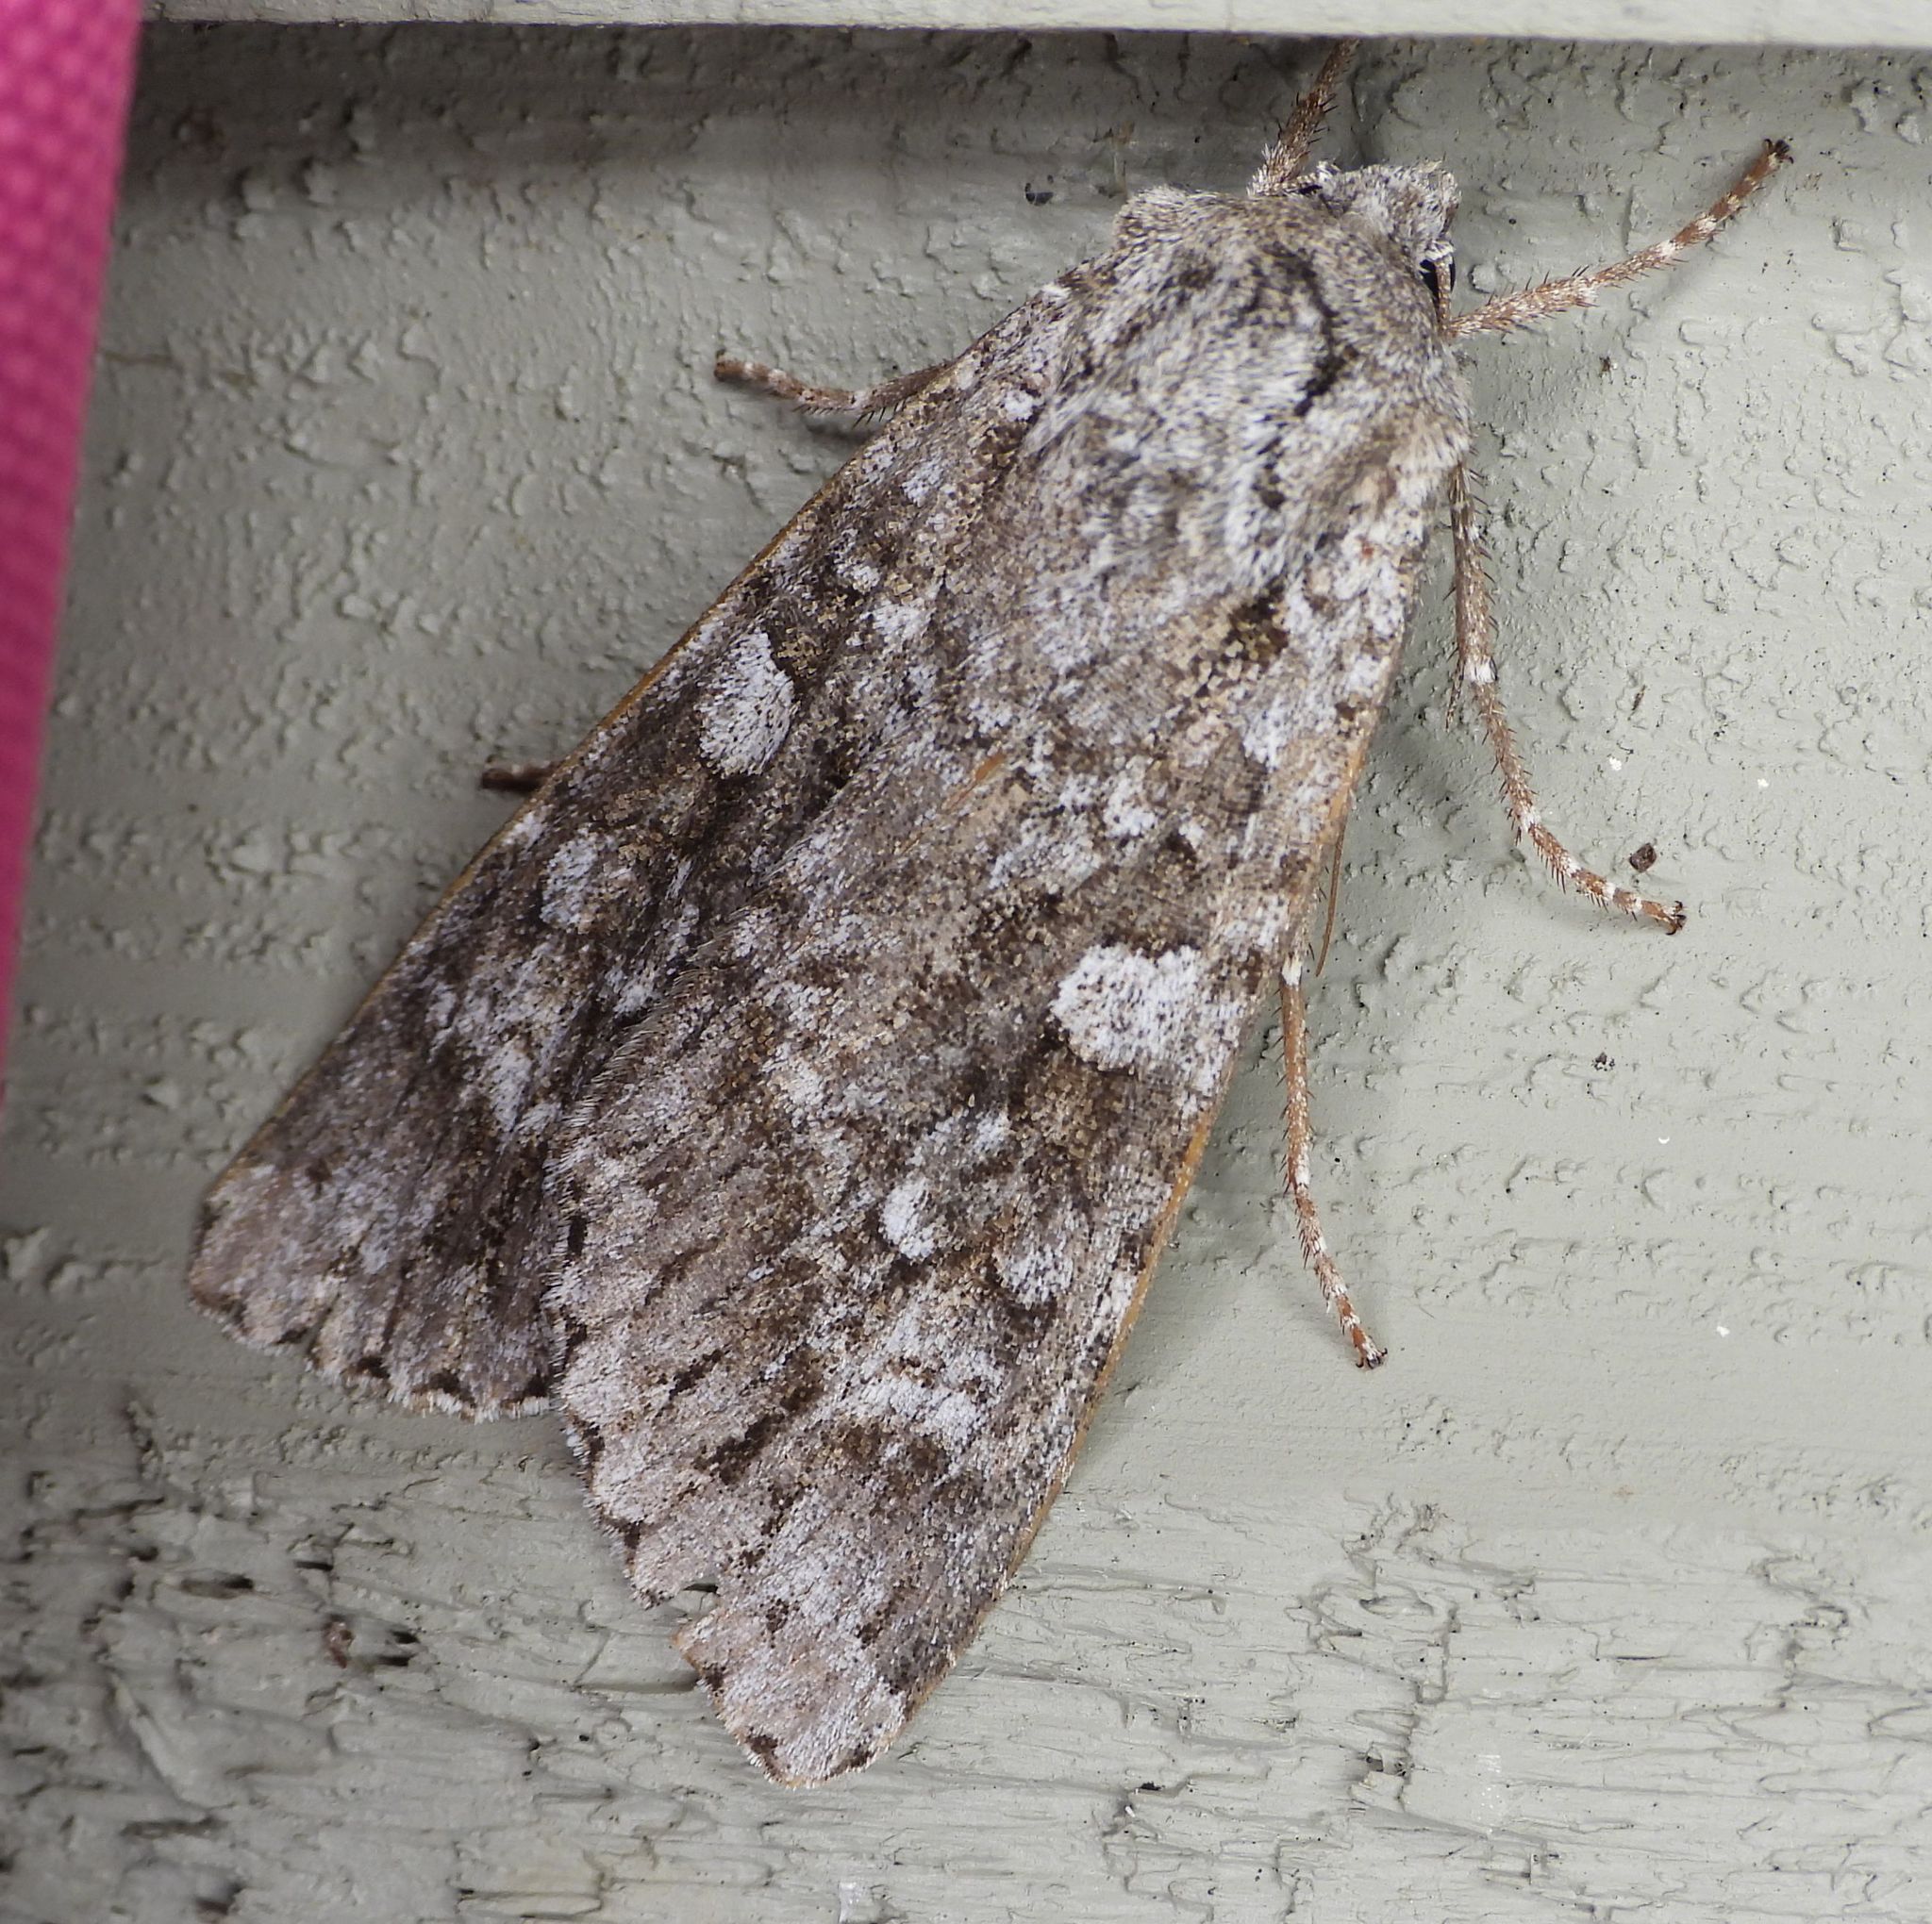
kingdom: Animalia
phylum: Arthropoda
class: Insecta
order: Lepidoptera
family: Noctuidae
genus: Eurois
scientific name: Eurois occulta
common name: Great brocade
